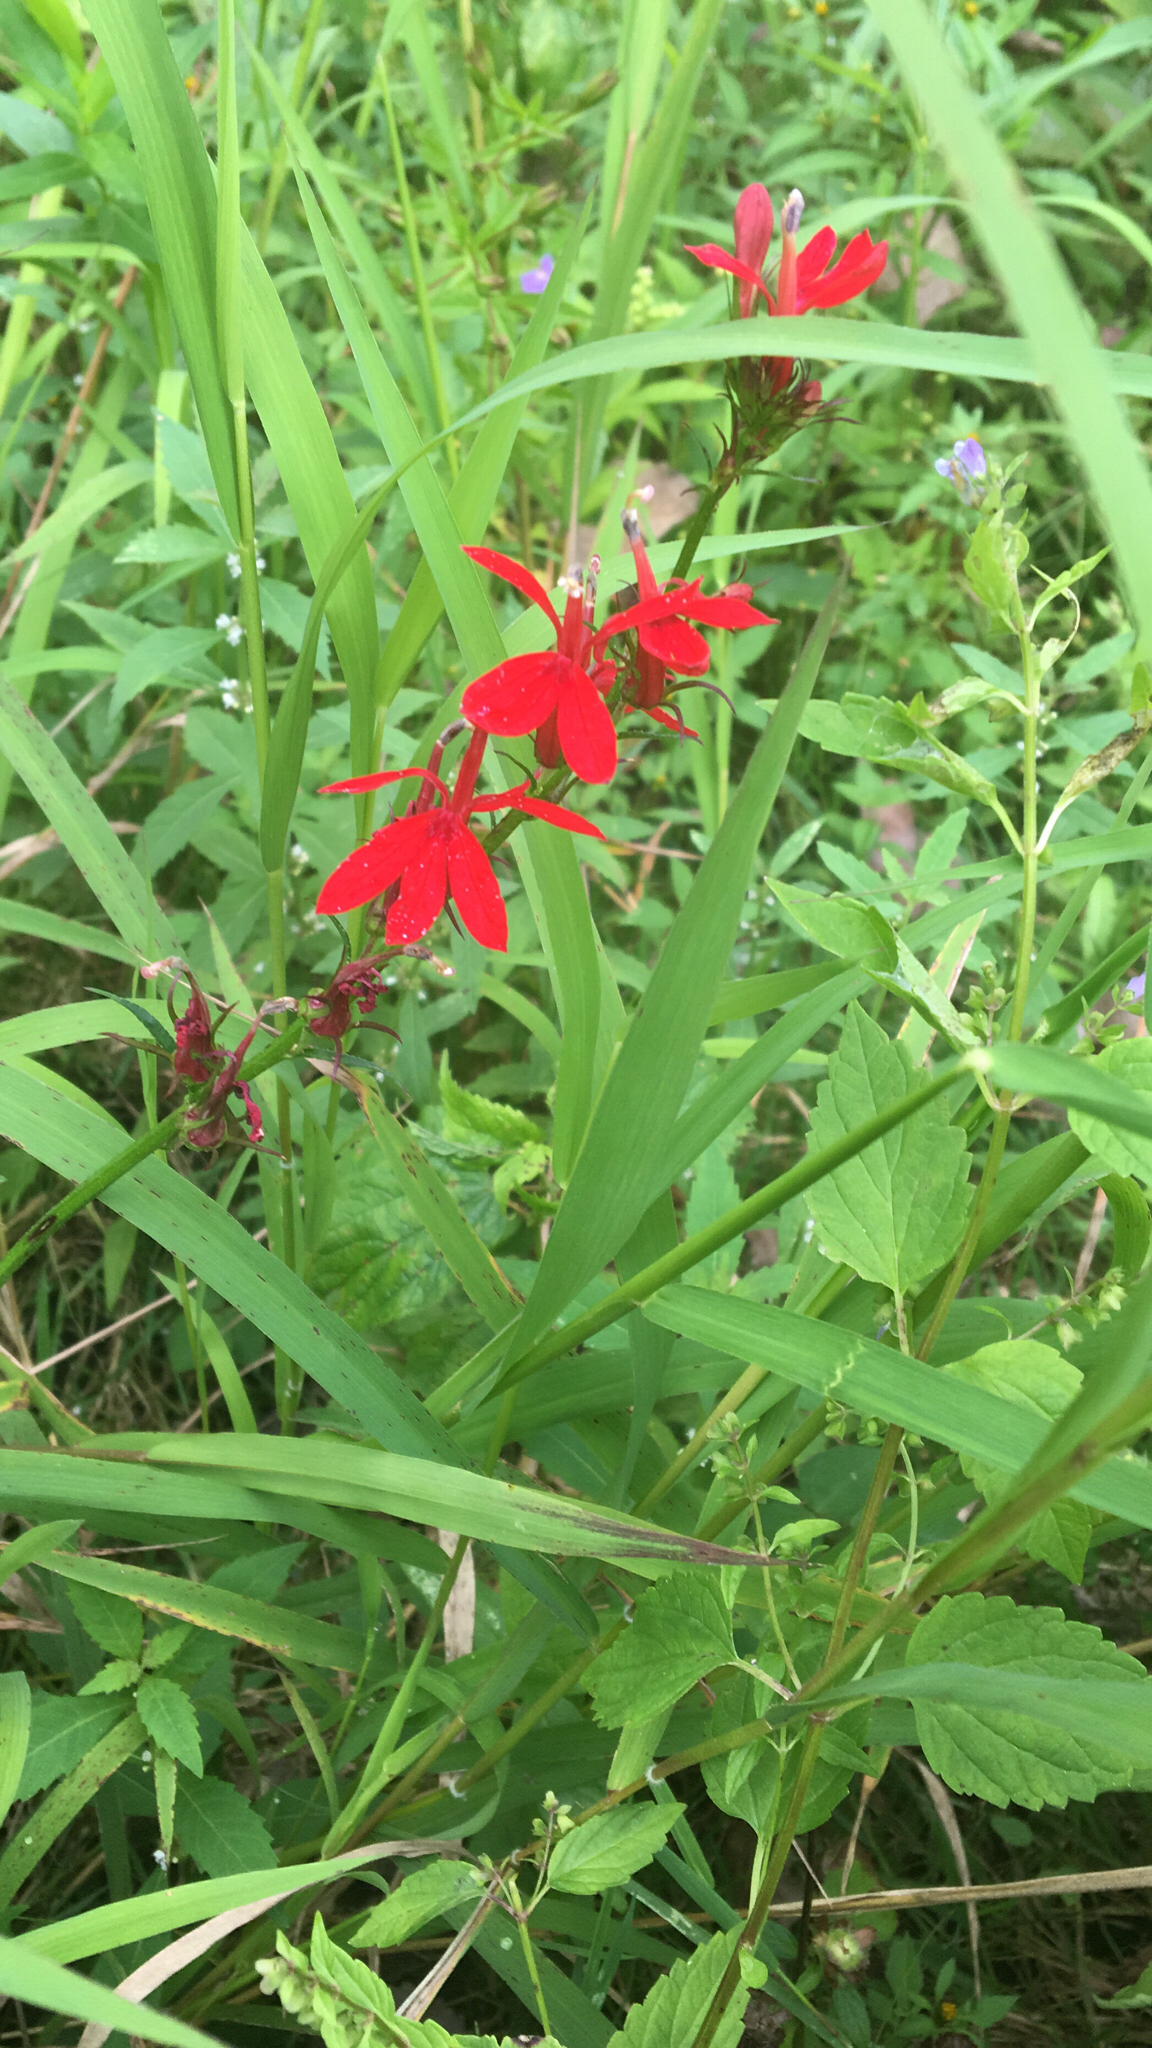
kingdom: Plantae
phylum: Tracheophyta
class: Magnoliopsida
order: Asterales
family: Campanulaceae
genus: Lobelia
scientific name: Lobelia cardinalis
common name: Cardinal flower
